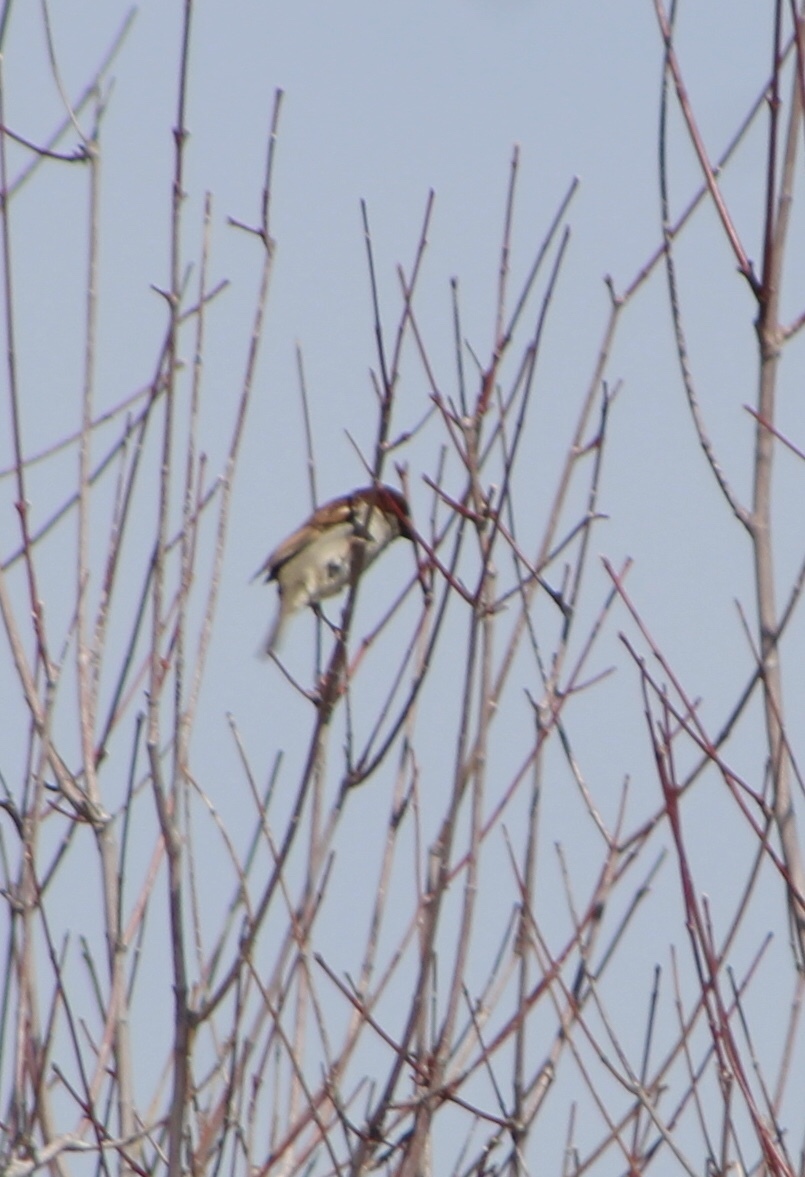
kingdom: Animalia
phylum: Chordata
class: Aves
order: Passeriformes
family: Passeridae
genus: Passer
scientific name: Passer domesticus
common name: House sparrow
